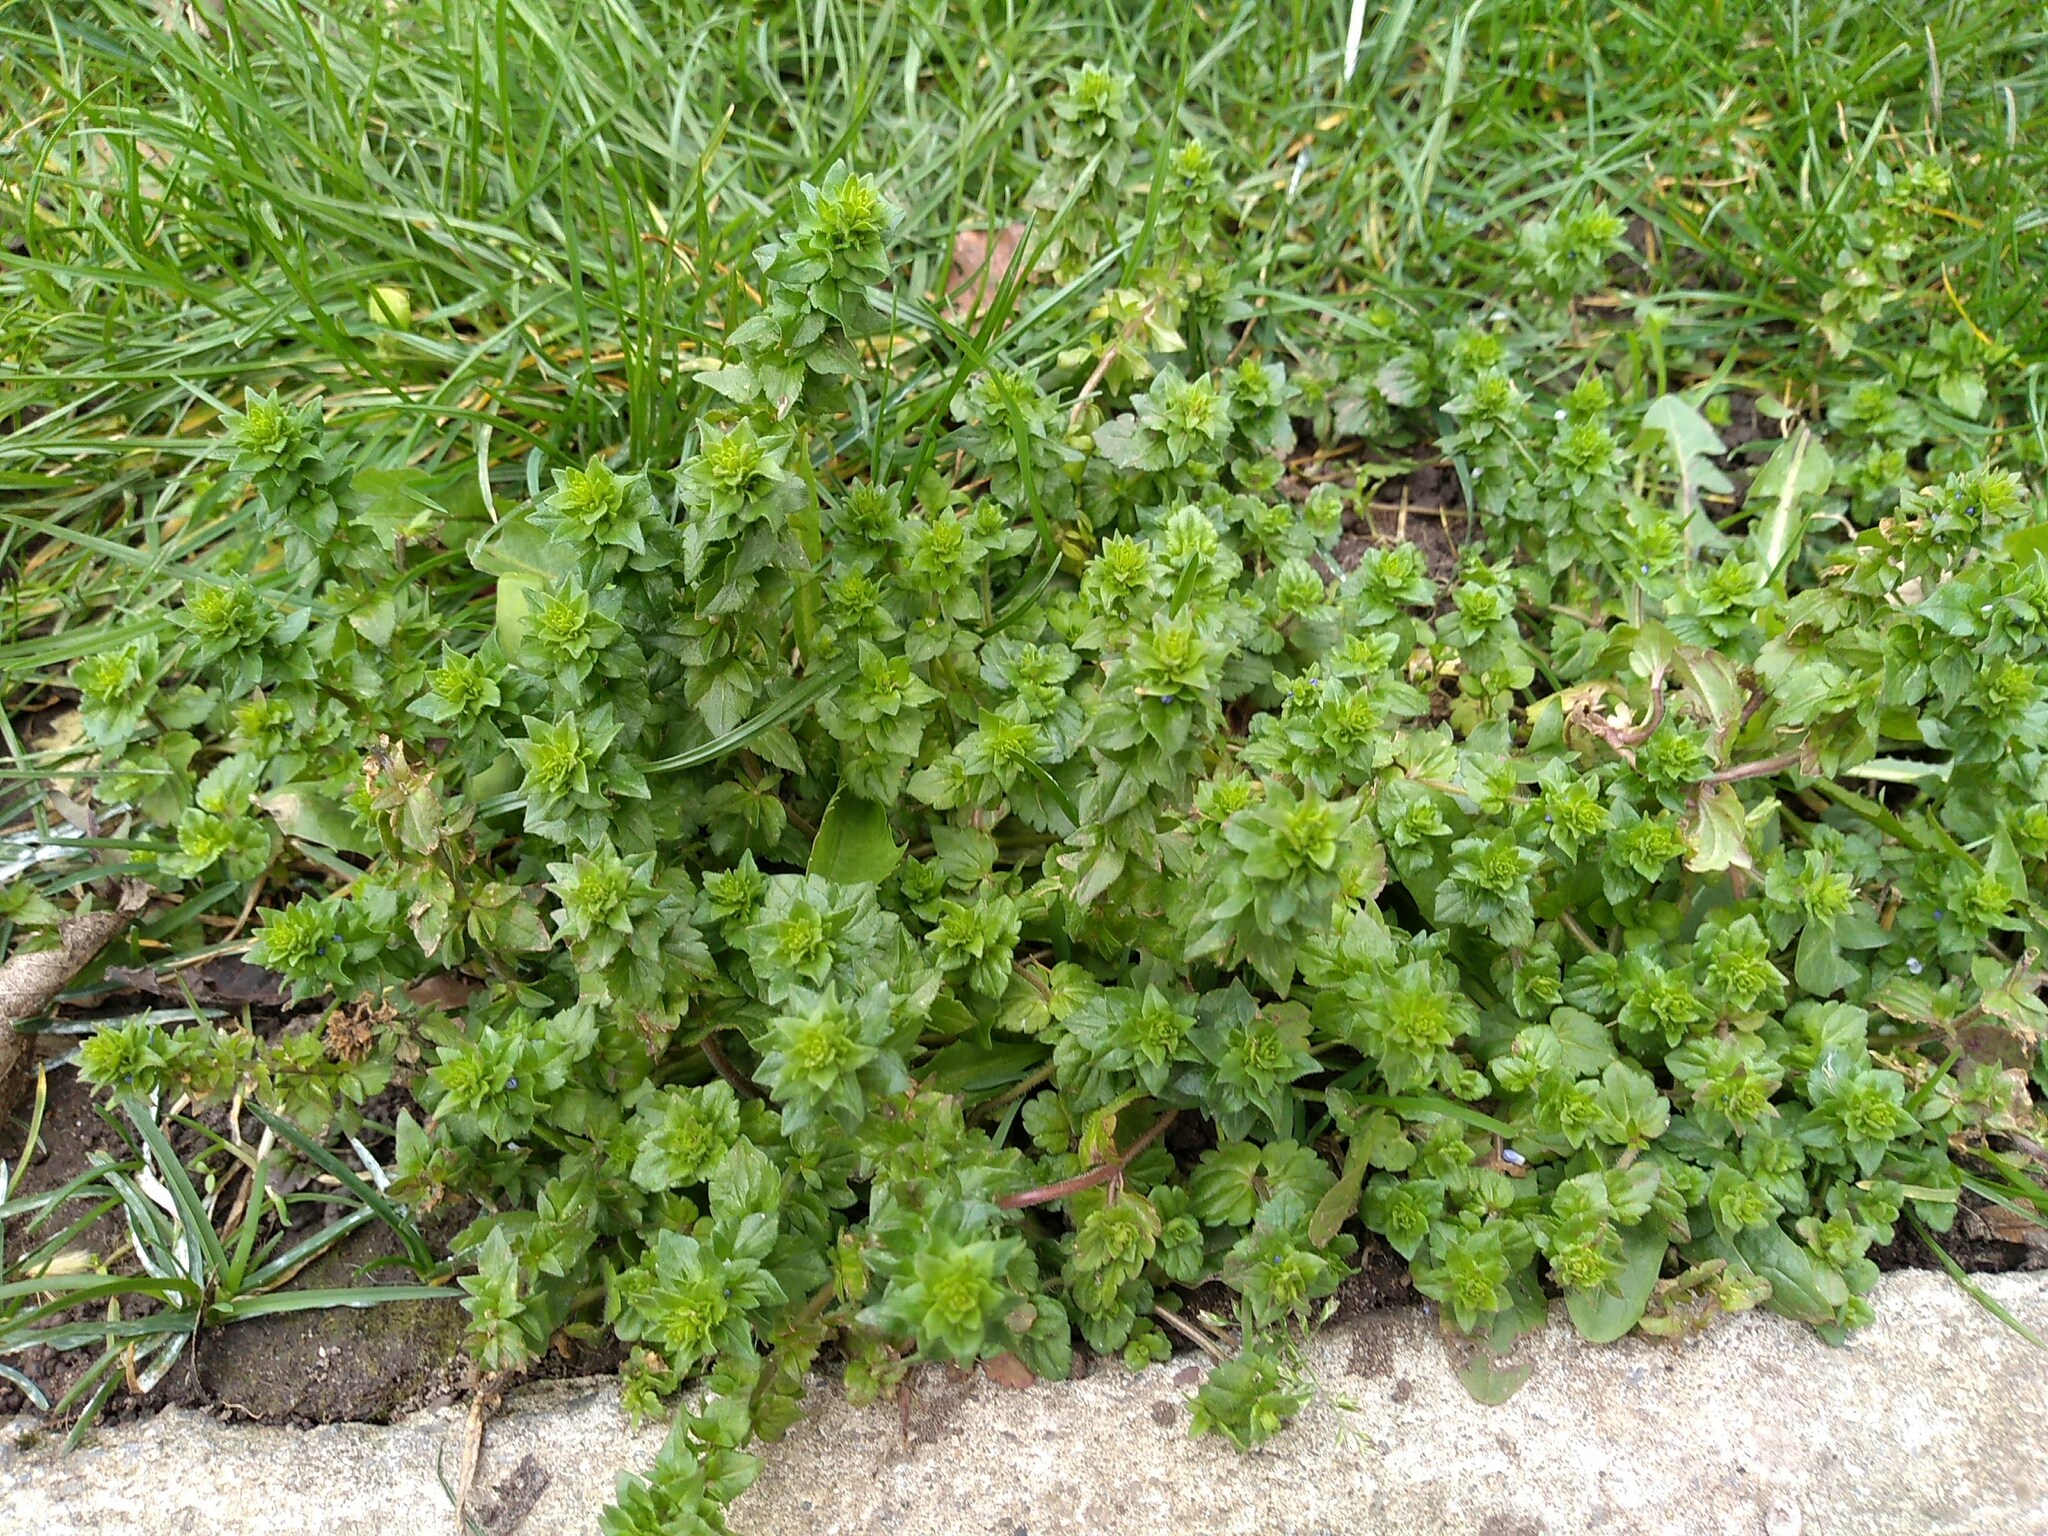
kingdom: Plantae
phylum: Tracheophyta
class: Magnoliopsida
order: Lamiales
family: Plantaginaceae
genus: Veronica
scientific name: Veronica arvensis
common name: Corn speedwell
